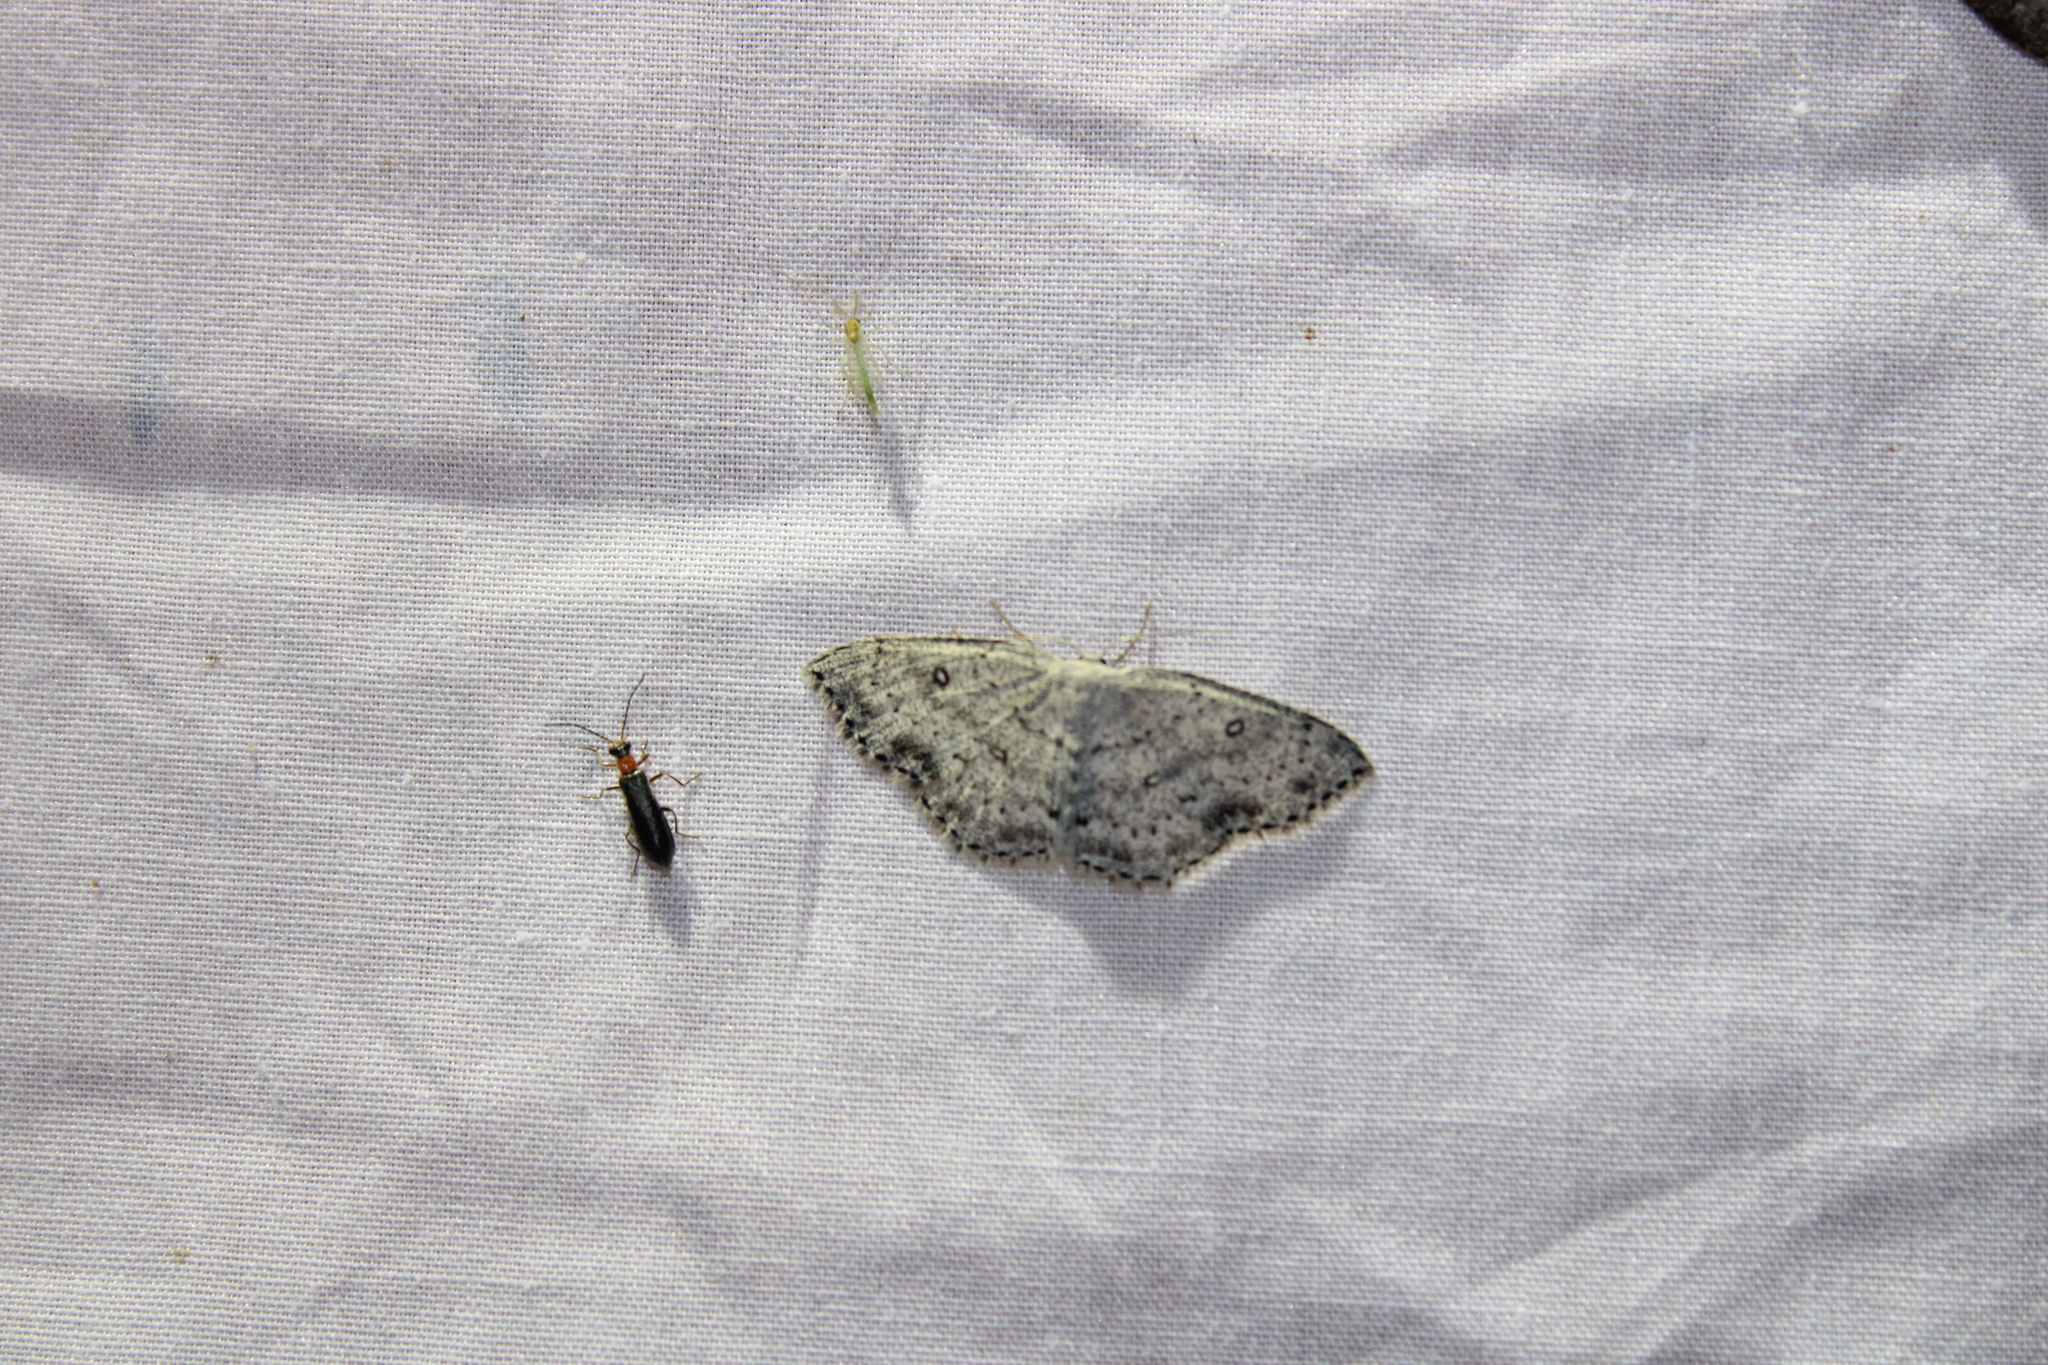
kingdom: Animalia
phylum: Arthropoda
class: Insecta
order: Lepidoptera
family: Geometridae
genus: Cyclophora
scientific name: Cyclophora pendulinaria
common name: Sweet fern geometer
